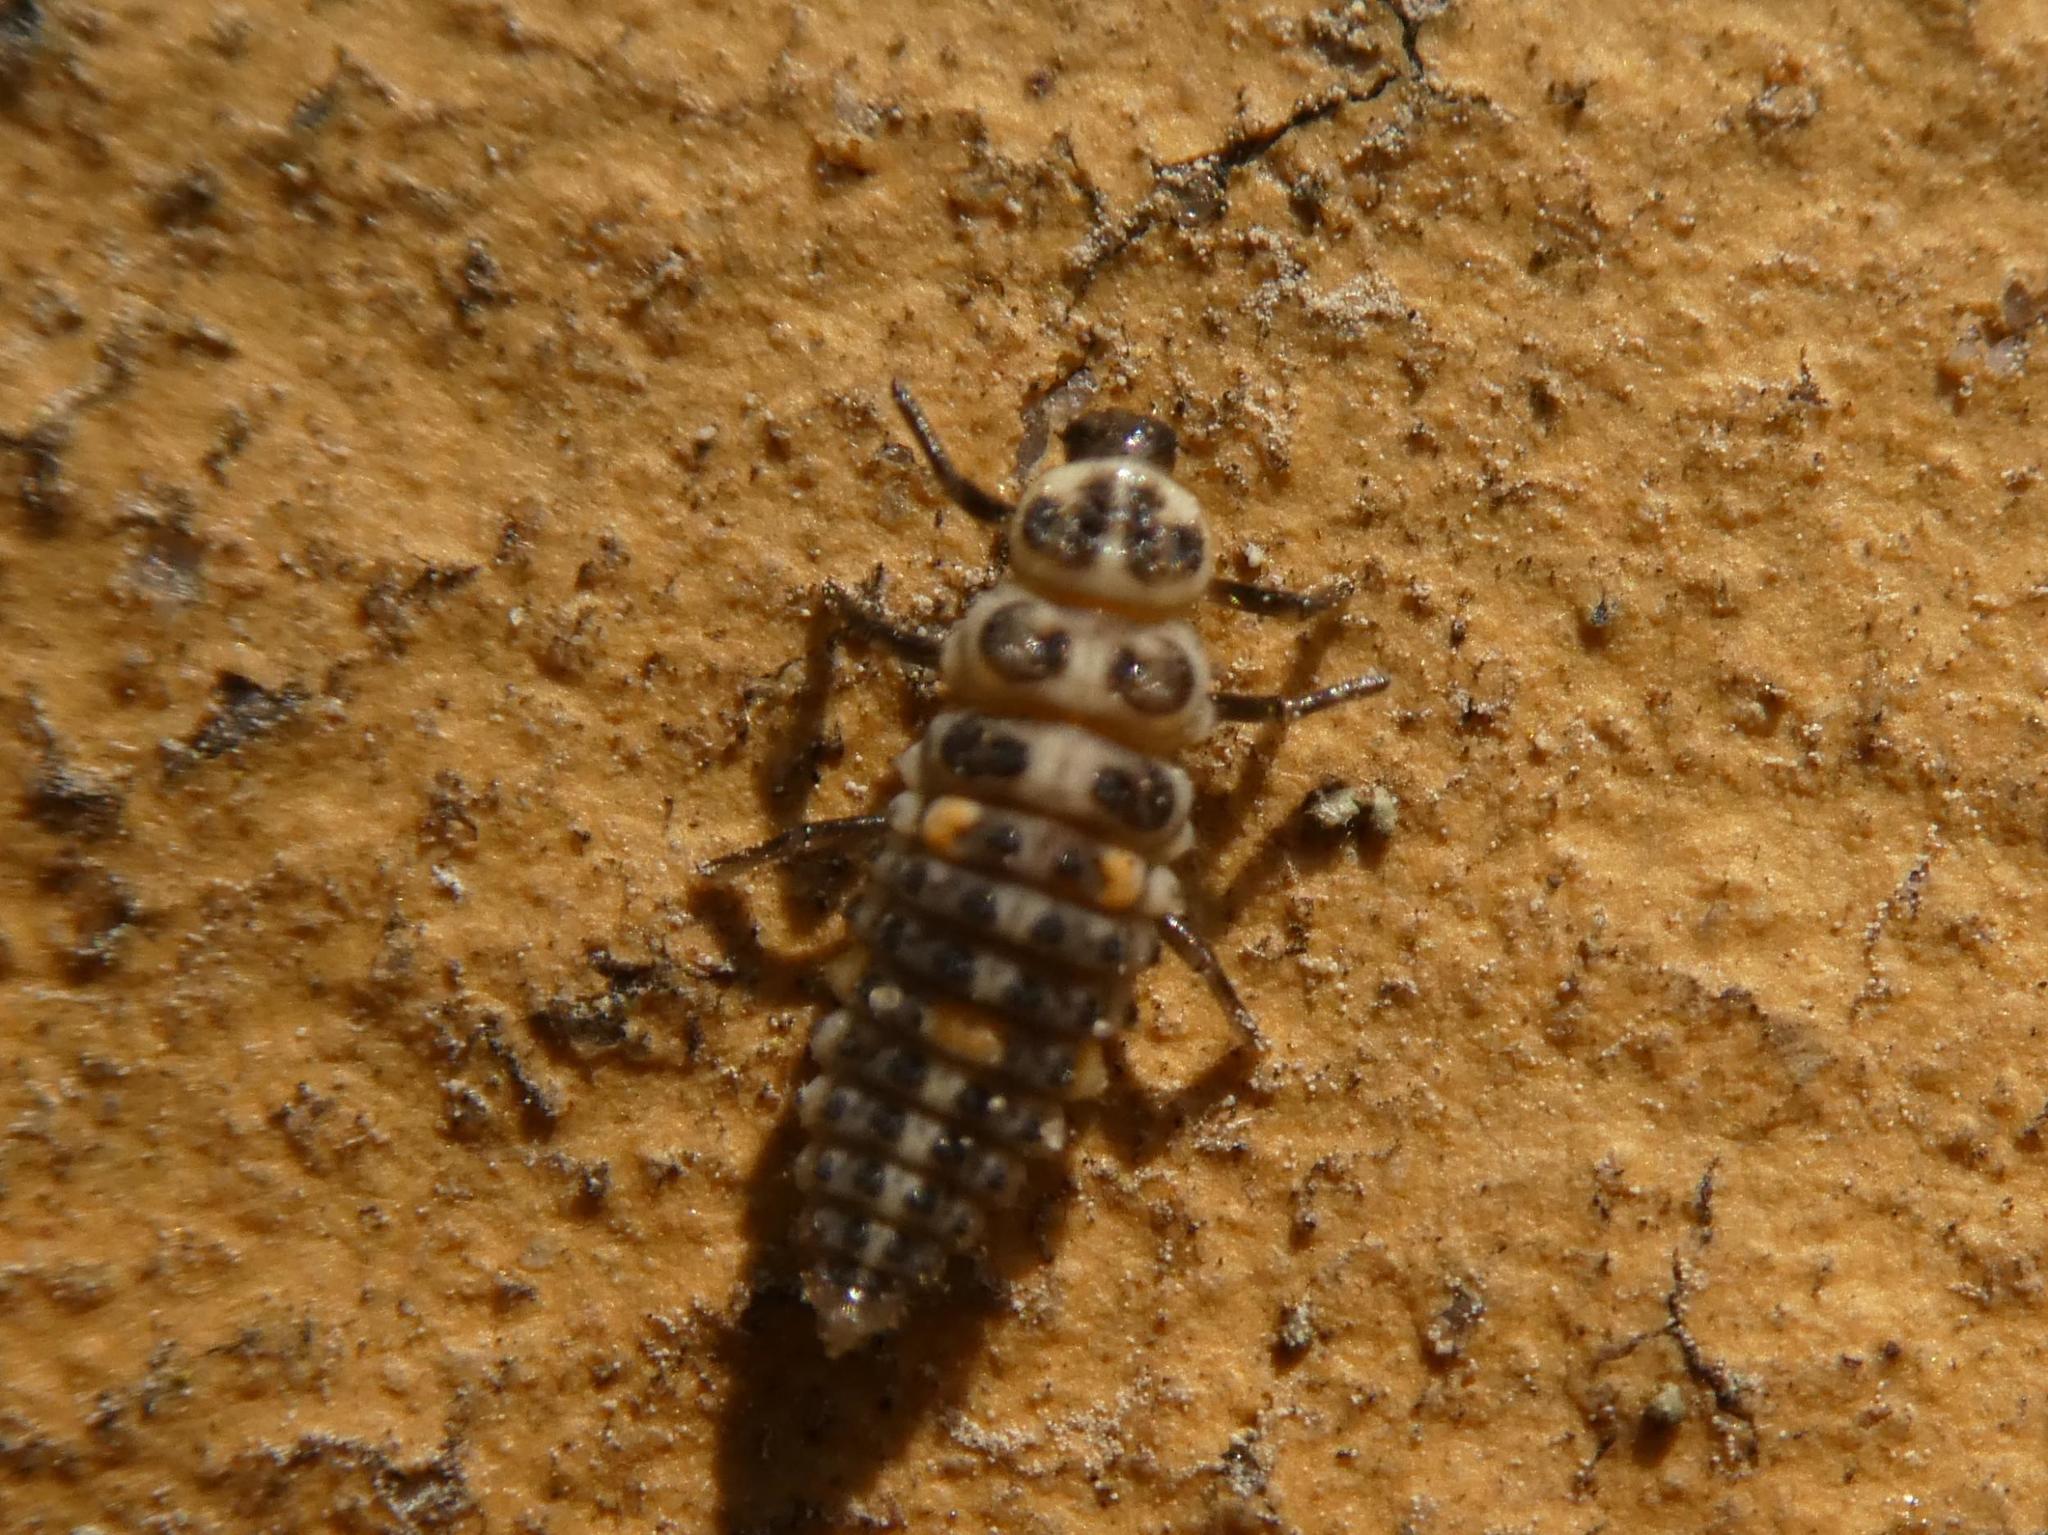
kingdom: Animalia
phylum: Arthropoda
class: Insecta
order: Coleoptera
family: Coccinellidae
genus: Adalia
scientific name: Adalia decempunctata
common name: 10-spot ladybird
